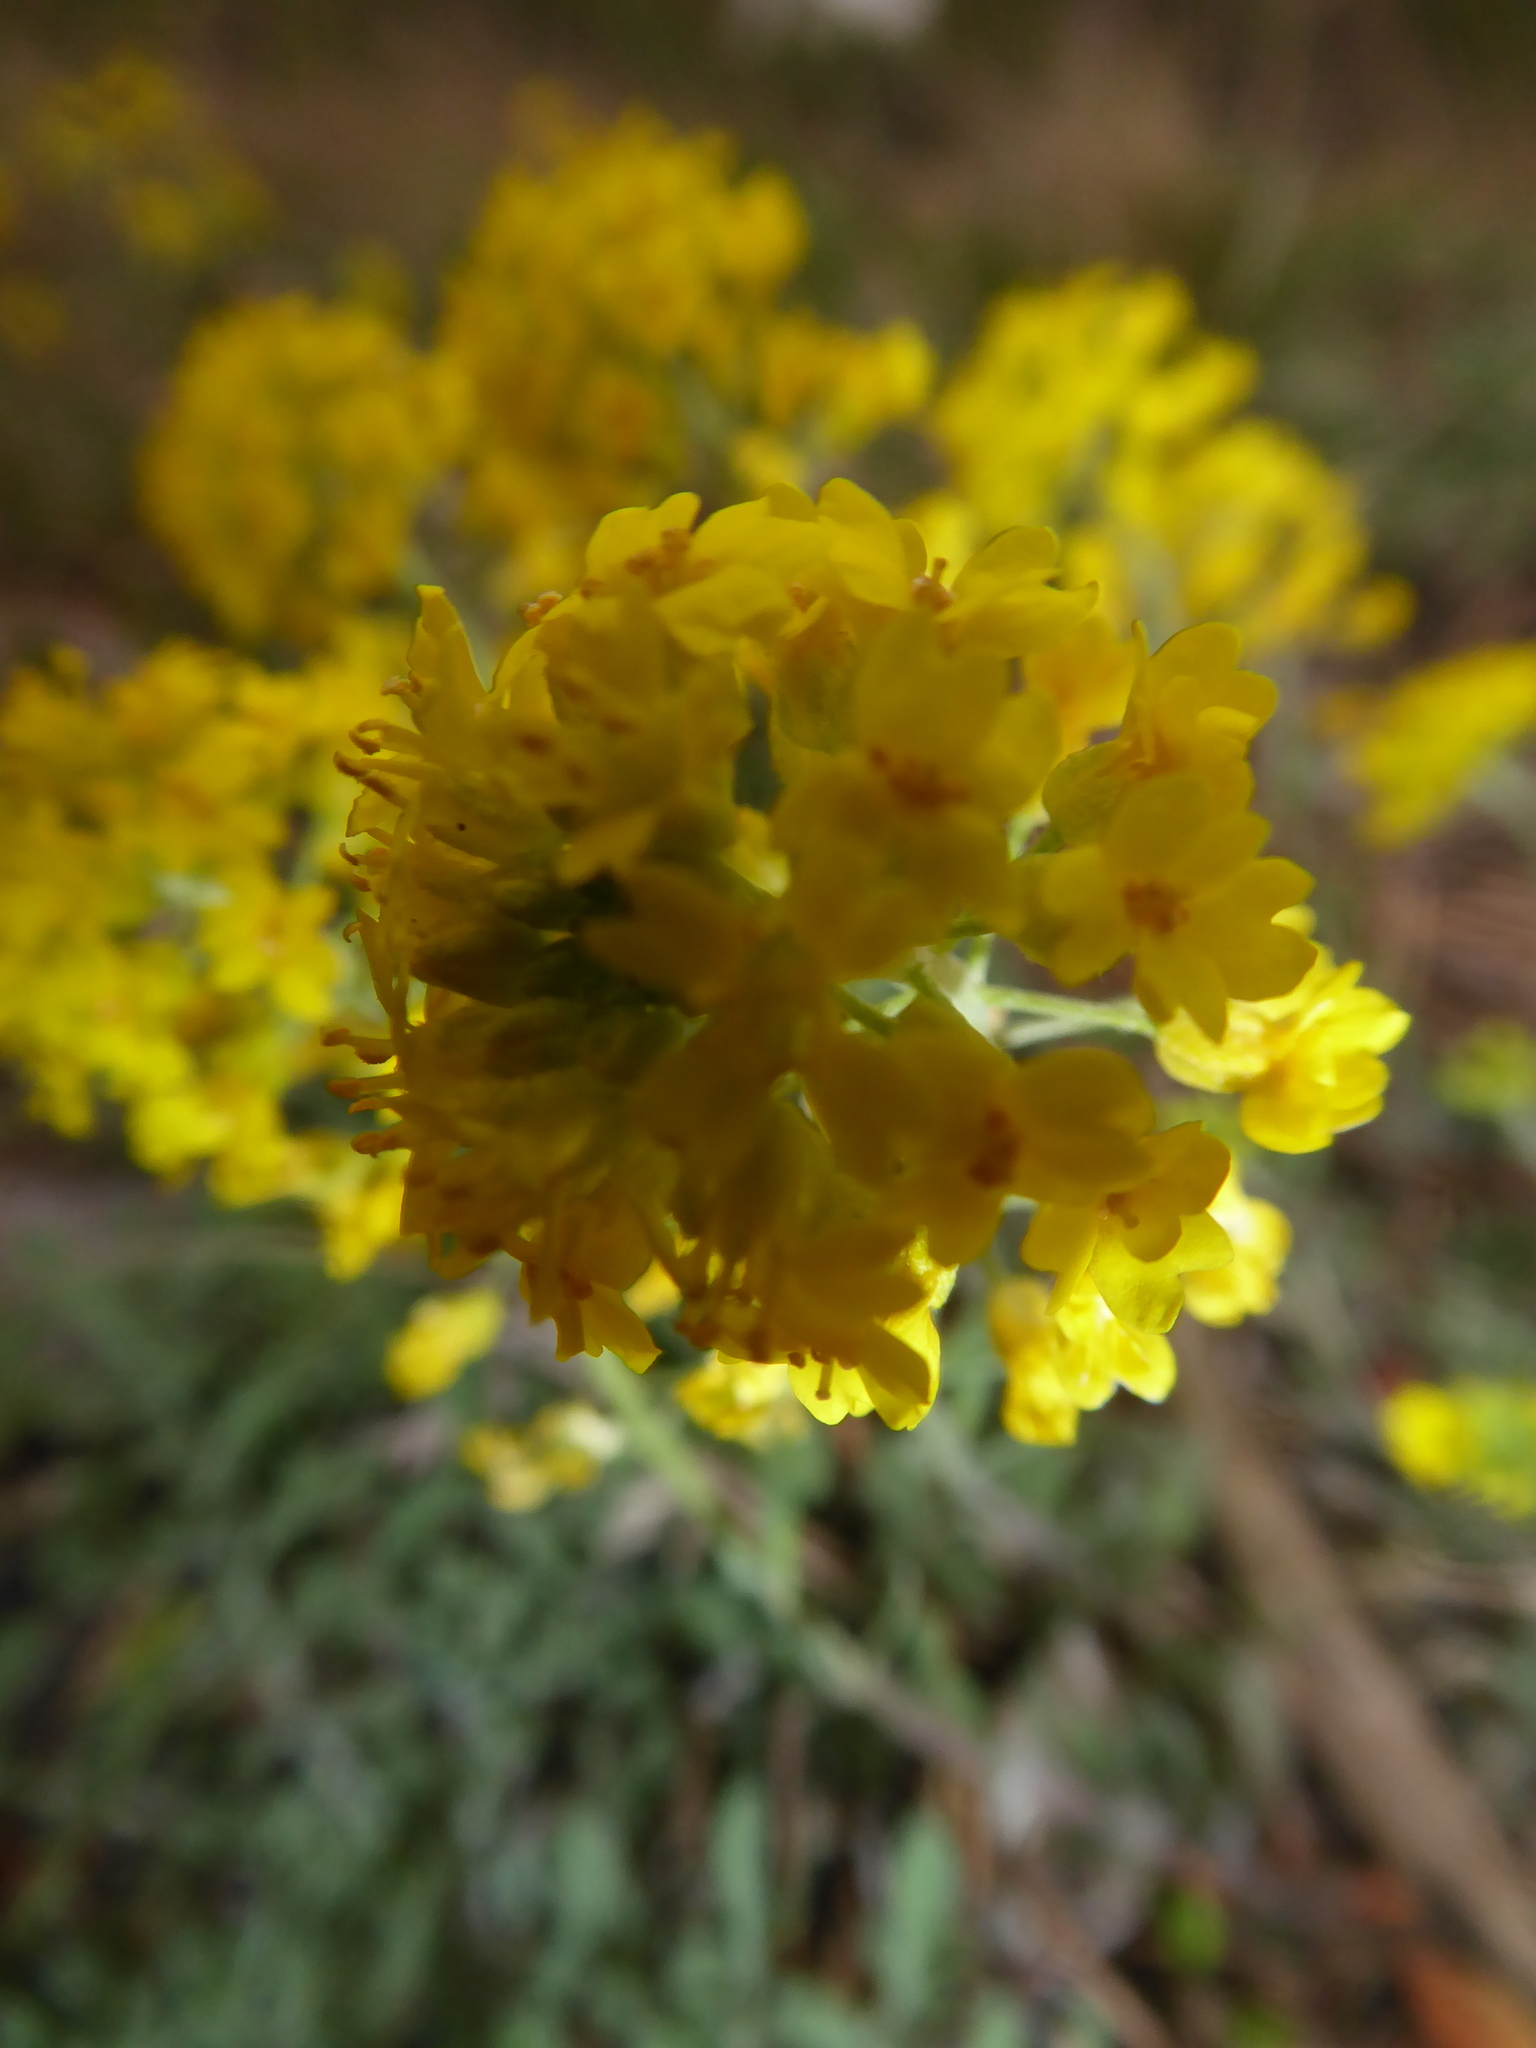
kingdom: Plantae
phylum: Tracheophyta
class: Magnoliopsida
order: Brassicales
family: Brassicaceae
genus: Alyssum
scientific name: Alyssum gmelinii
